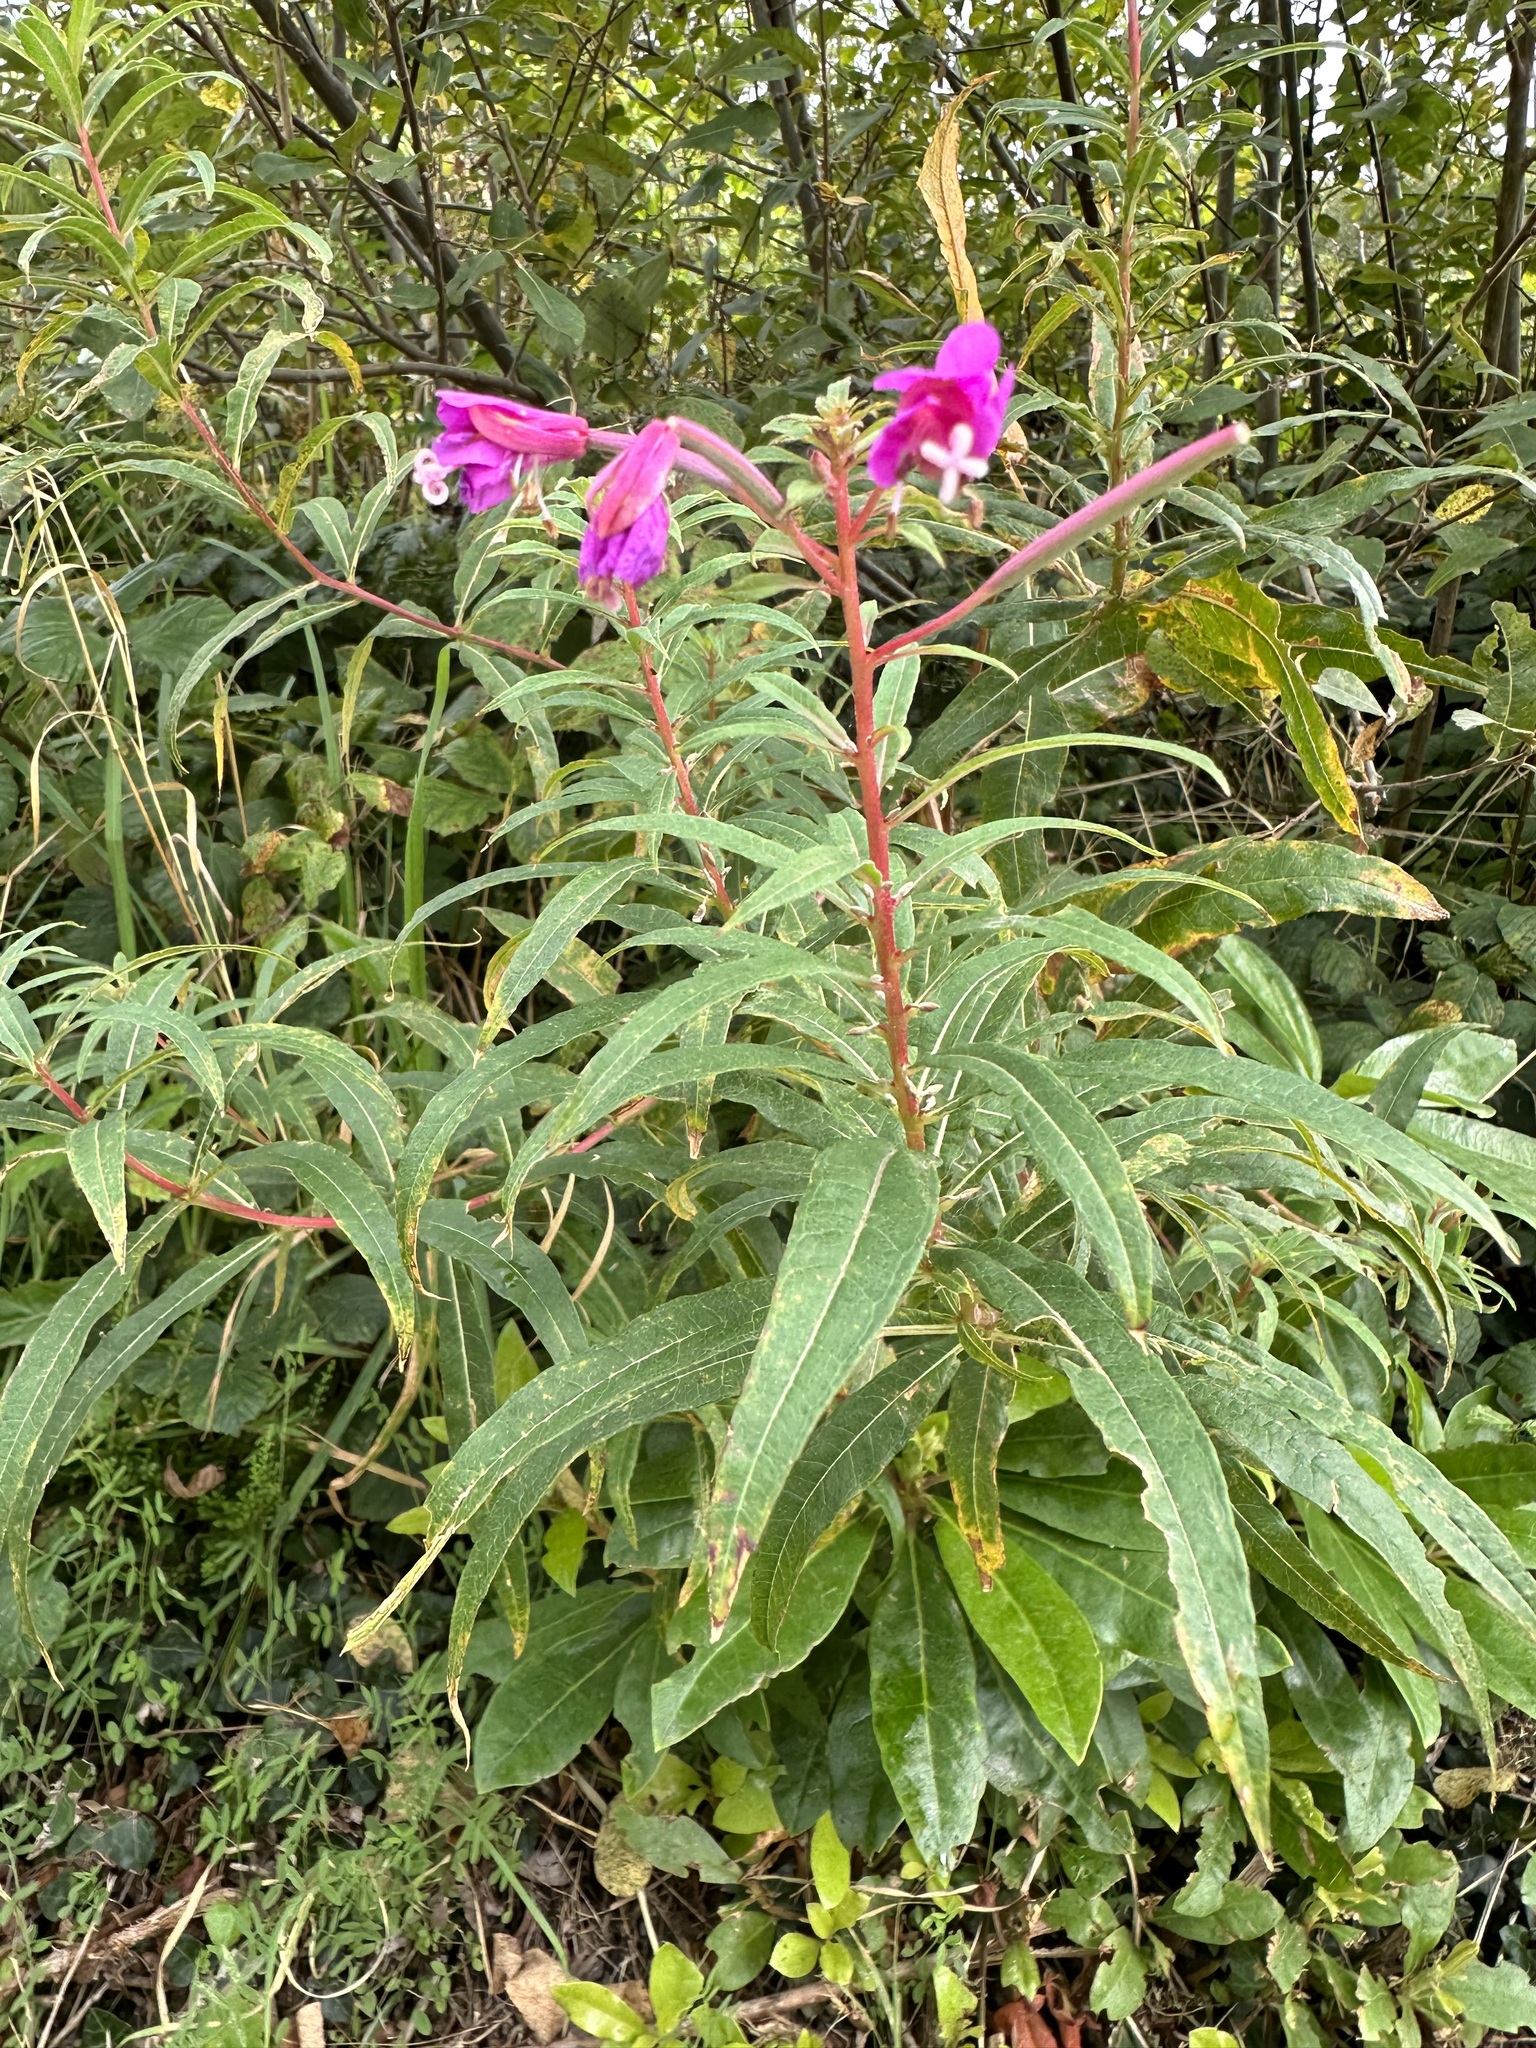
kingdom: Plantae
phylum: Tracheophyta
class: Magnoliopsida
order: Myrtales
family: Onagraceae
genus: Chamaenerion
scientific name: Chamaenerion angustifolium
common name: Fireweed
